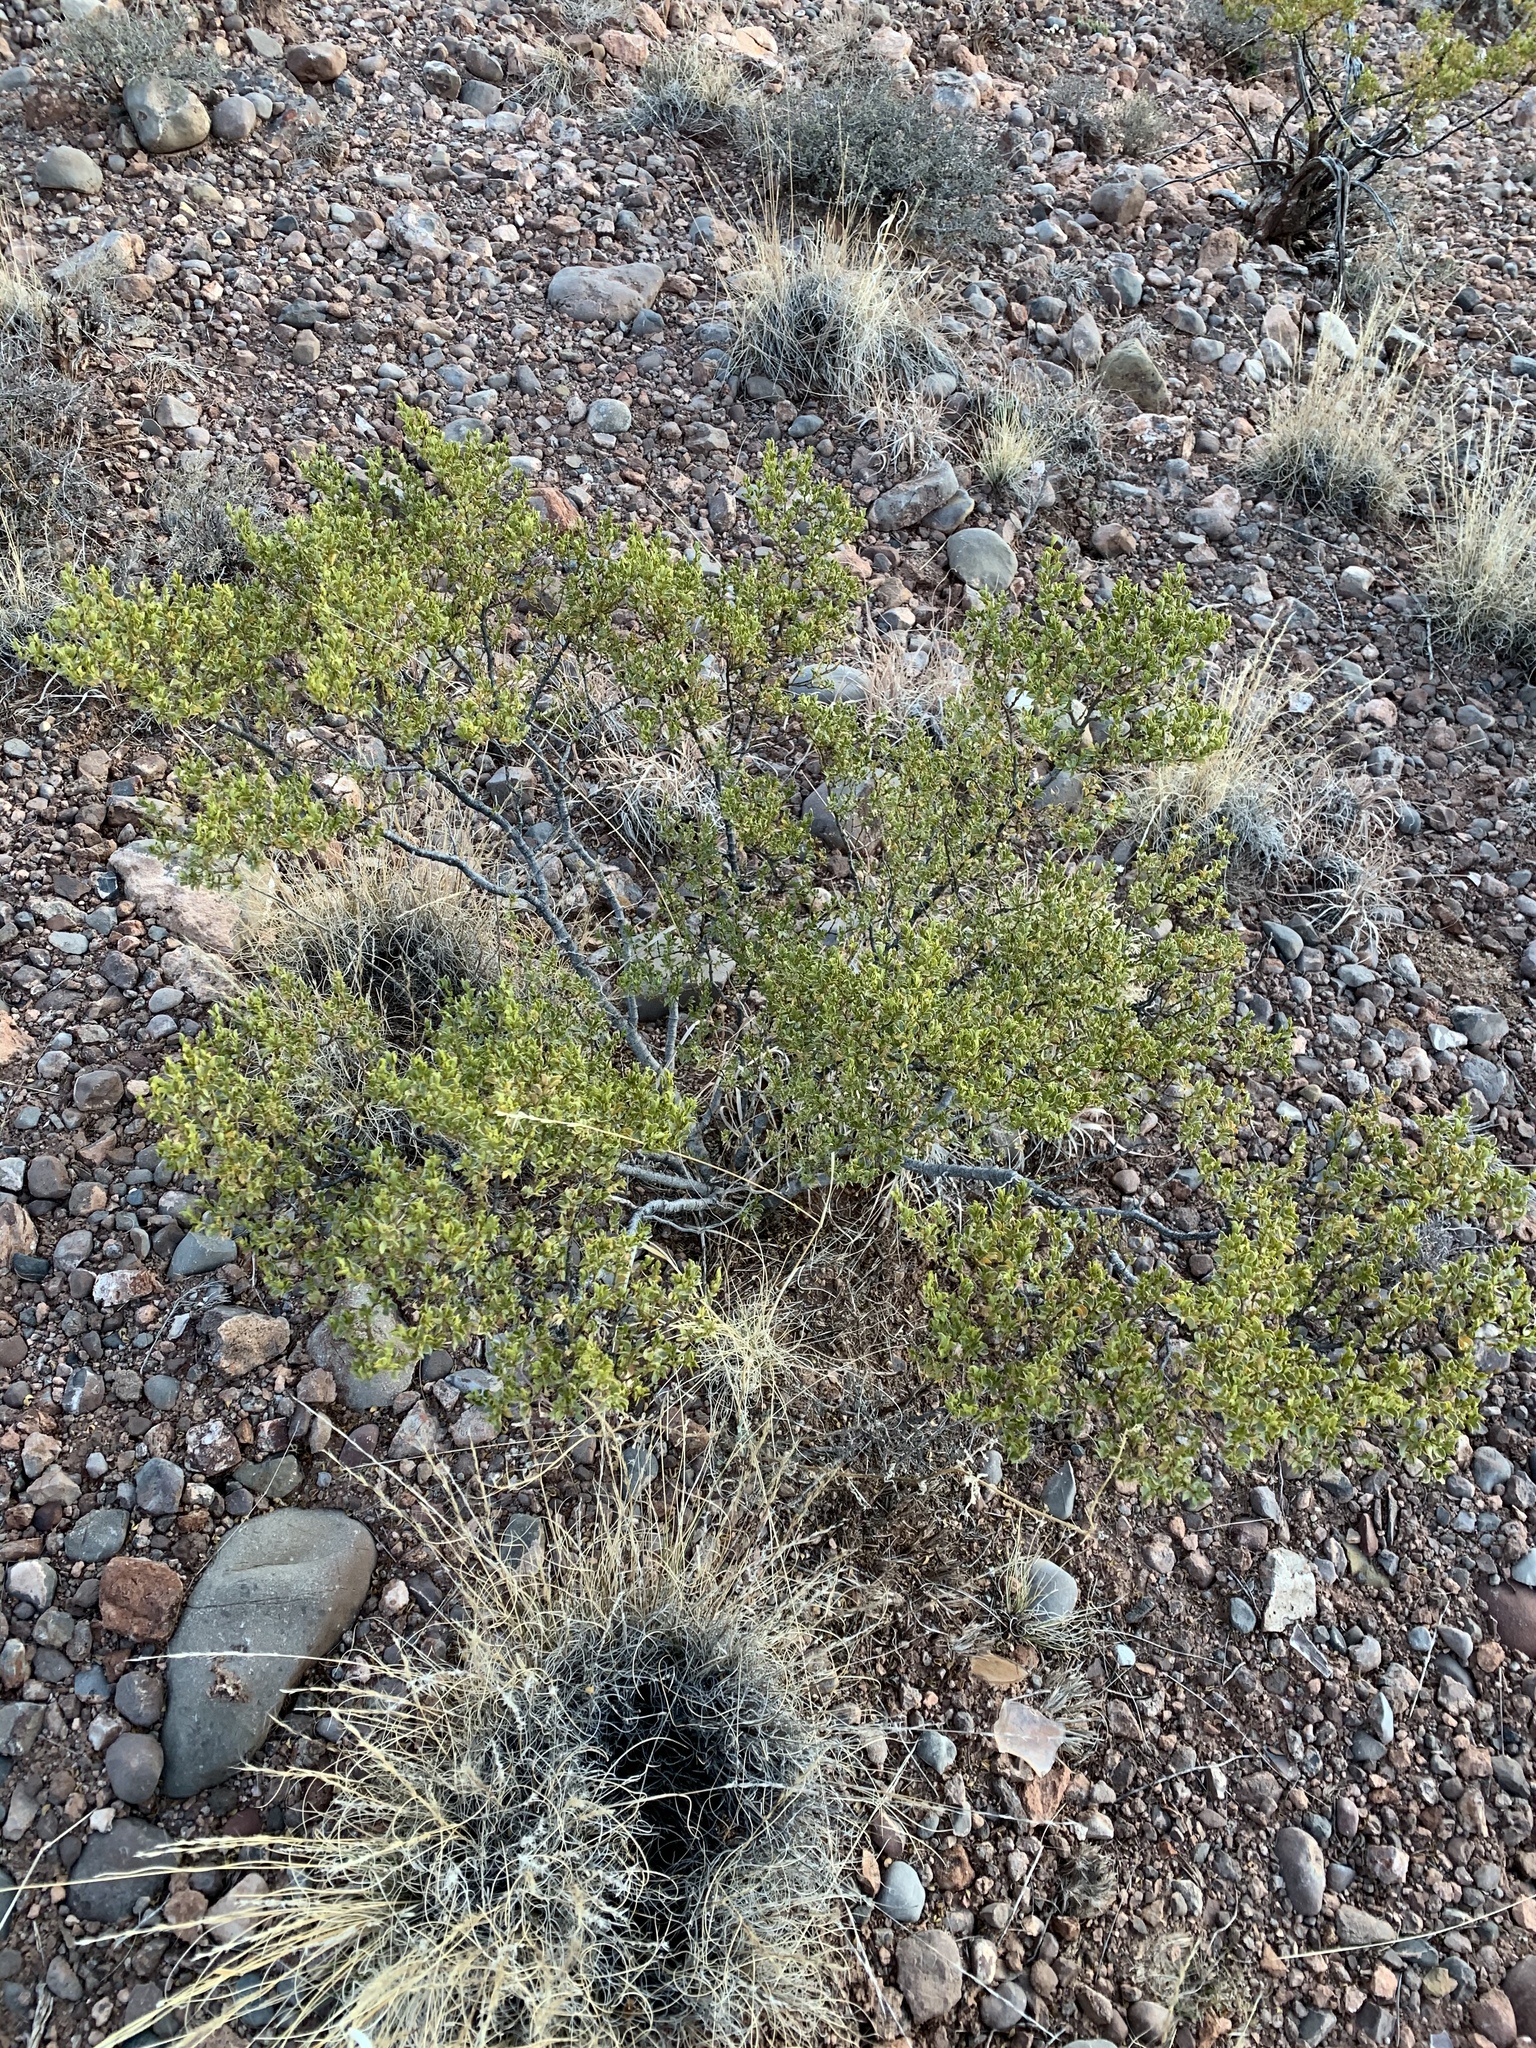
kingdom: Plantae
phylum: Tracheophyta
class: Magnoliopsida
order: Zygophyllales
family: Zygophyllaceae
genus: Larrea
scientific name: Larrea tridentata
